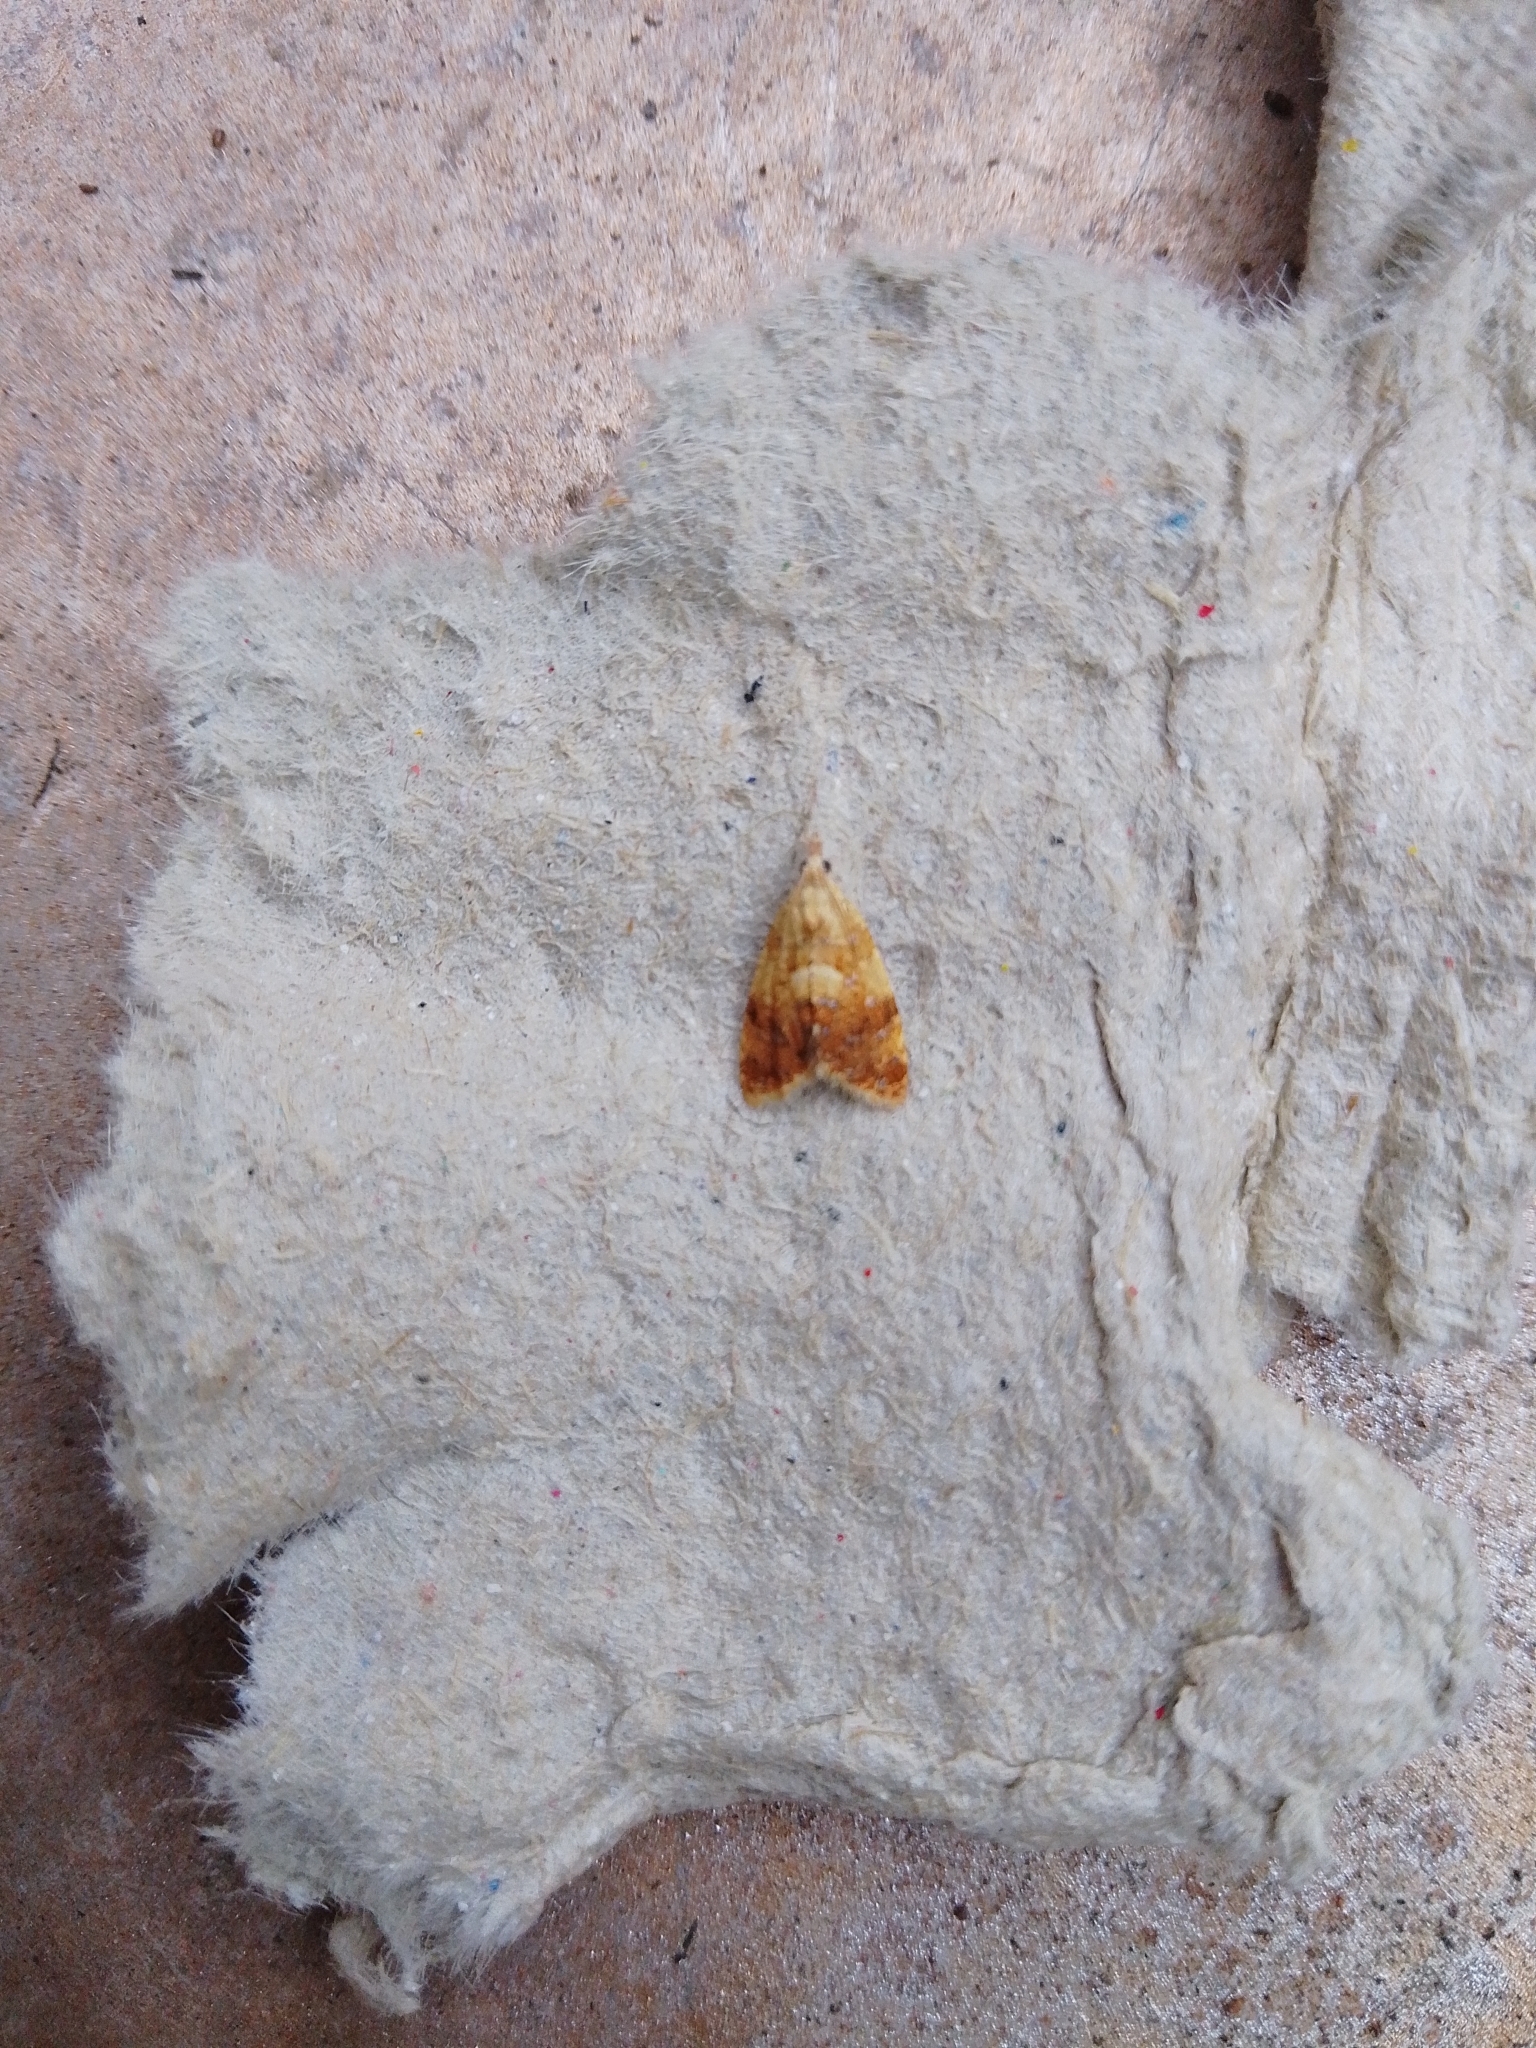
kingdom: Animalia
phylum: Arthropoda
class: Insecta
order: Lepidoptera
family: Tortricidae
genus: Pseudargyrotoza
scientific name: Pseudargyrotoza conwagana
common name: Yellow-spot twist
